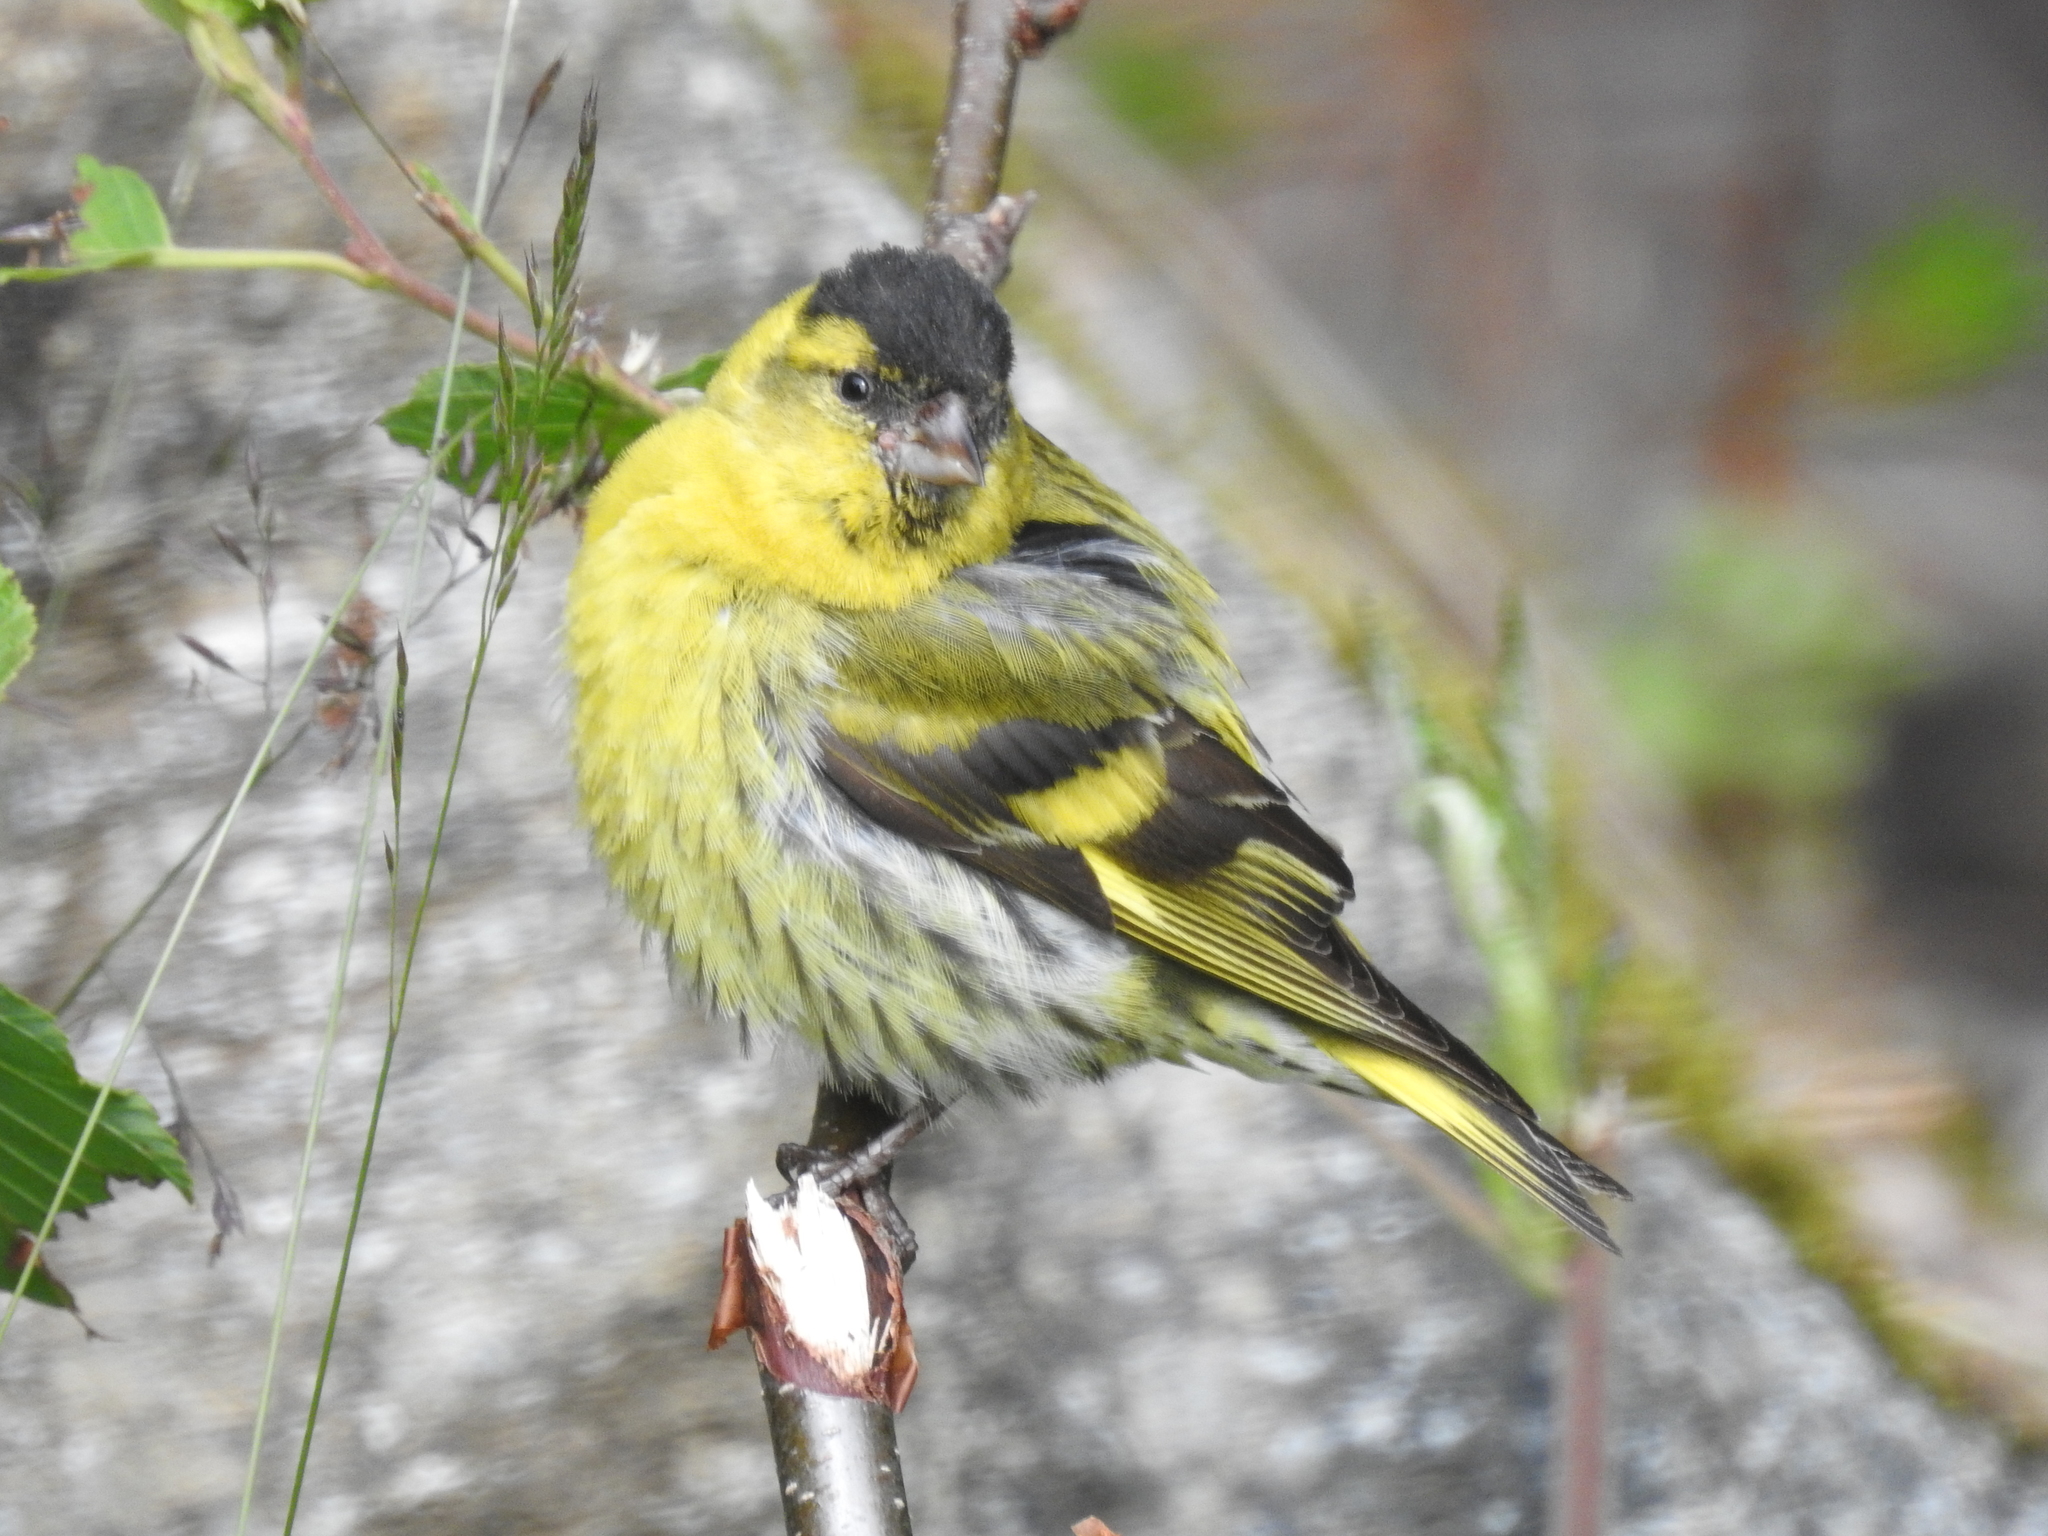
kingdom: Animalia
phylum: Chordata
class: Aves
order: Passeriformes
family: Fringillidae
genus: Spinus
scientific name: Spinus spinus
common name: Eurasian siskin
